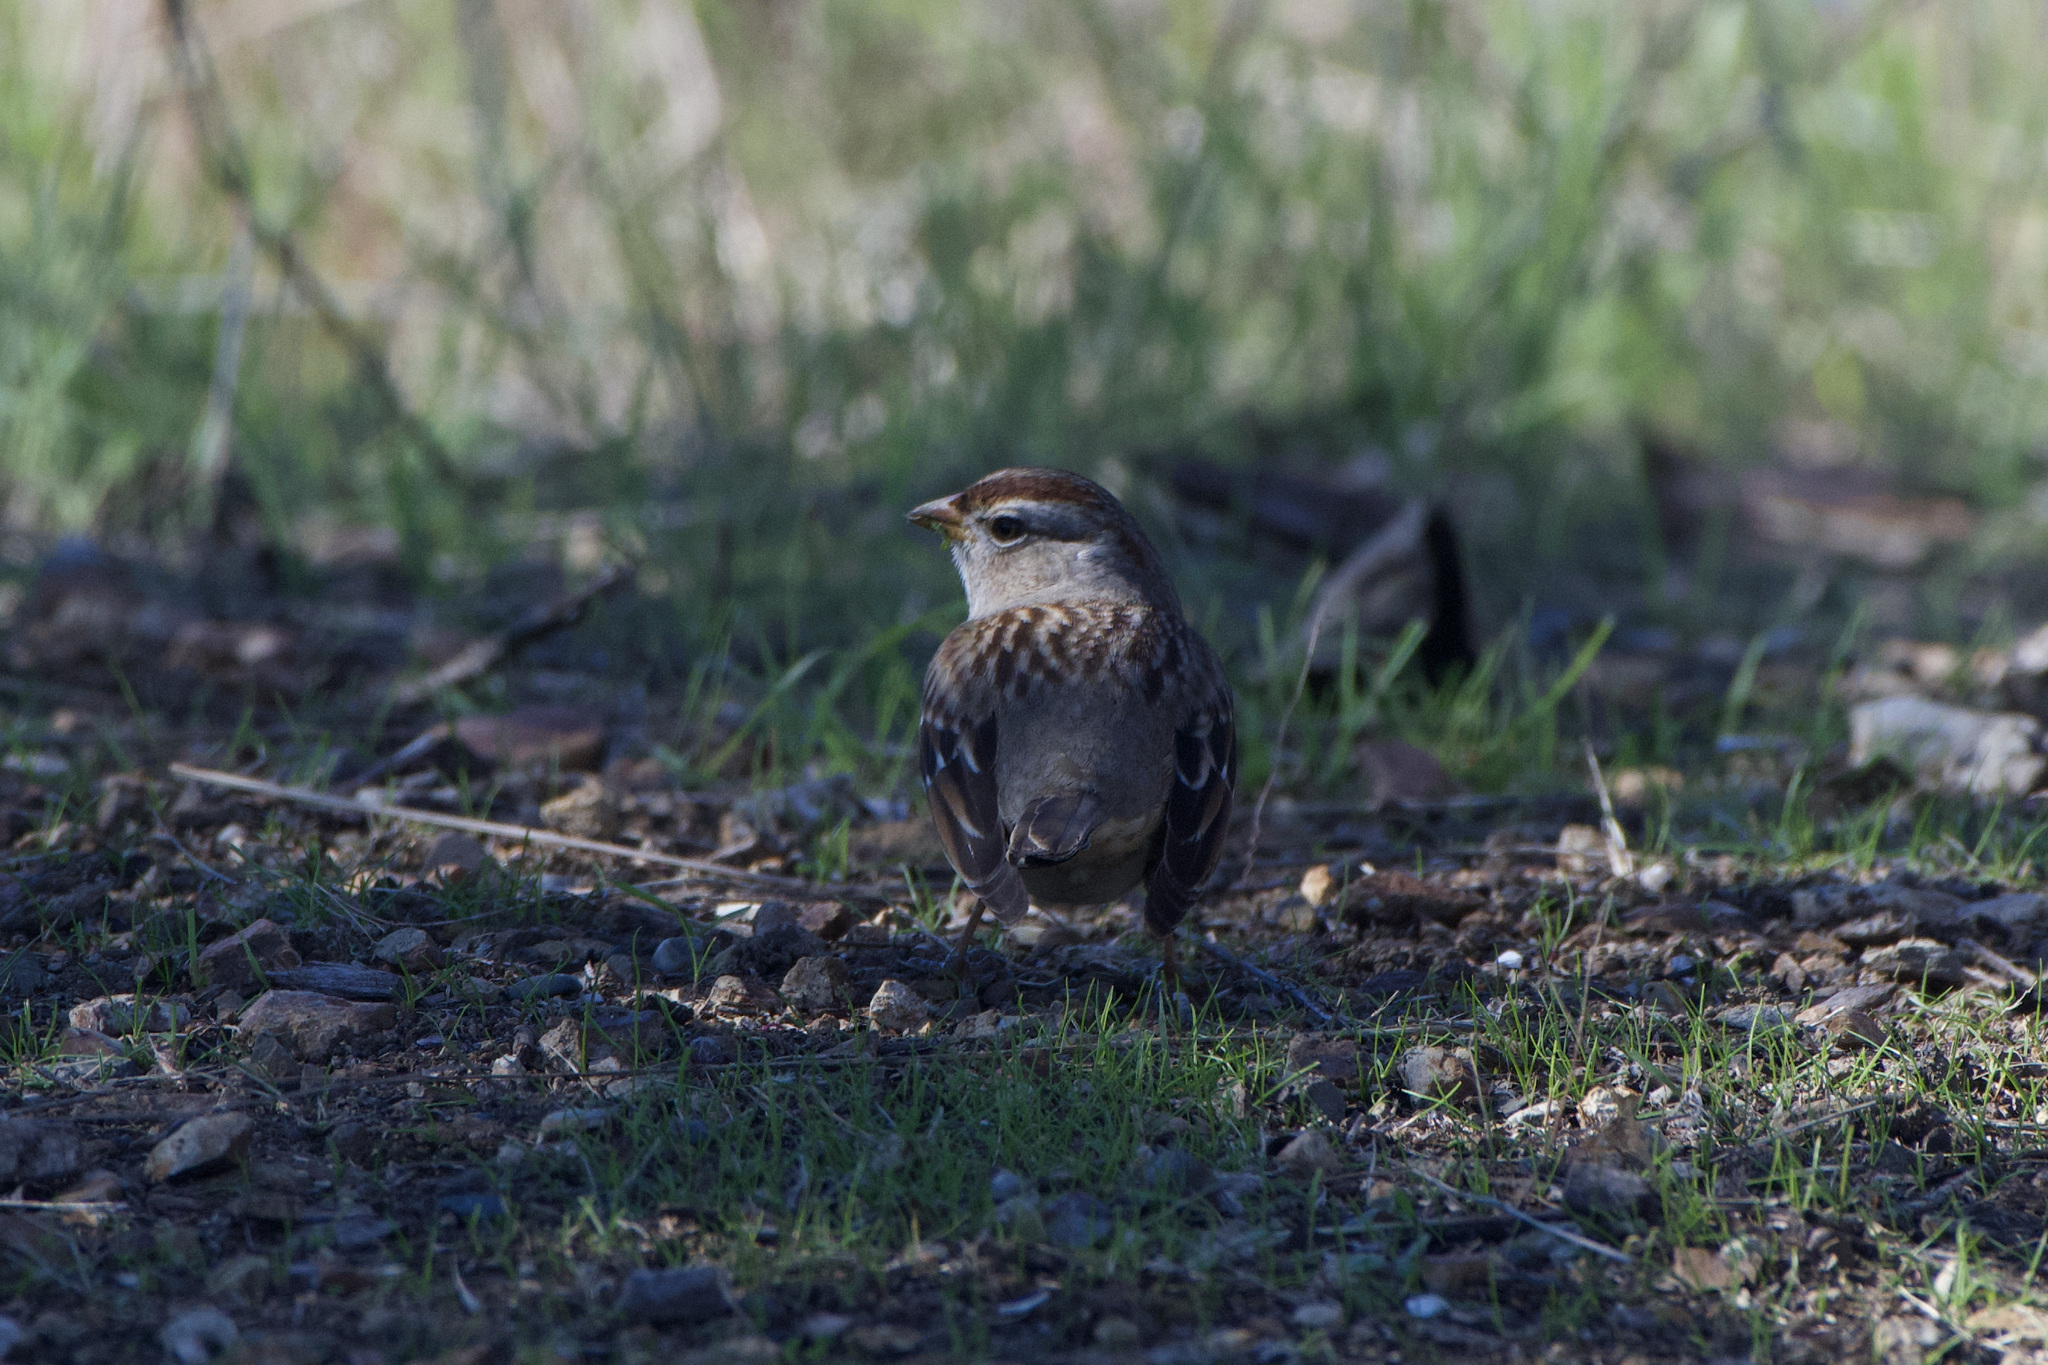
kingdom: Animalia
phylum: Chordata
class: Aves
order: Passeriformes
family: Passerellidae
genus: Zonotrichia
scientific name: Zonotrichia leucophrys
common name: White-crowned sparrow
